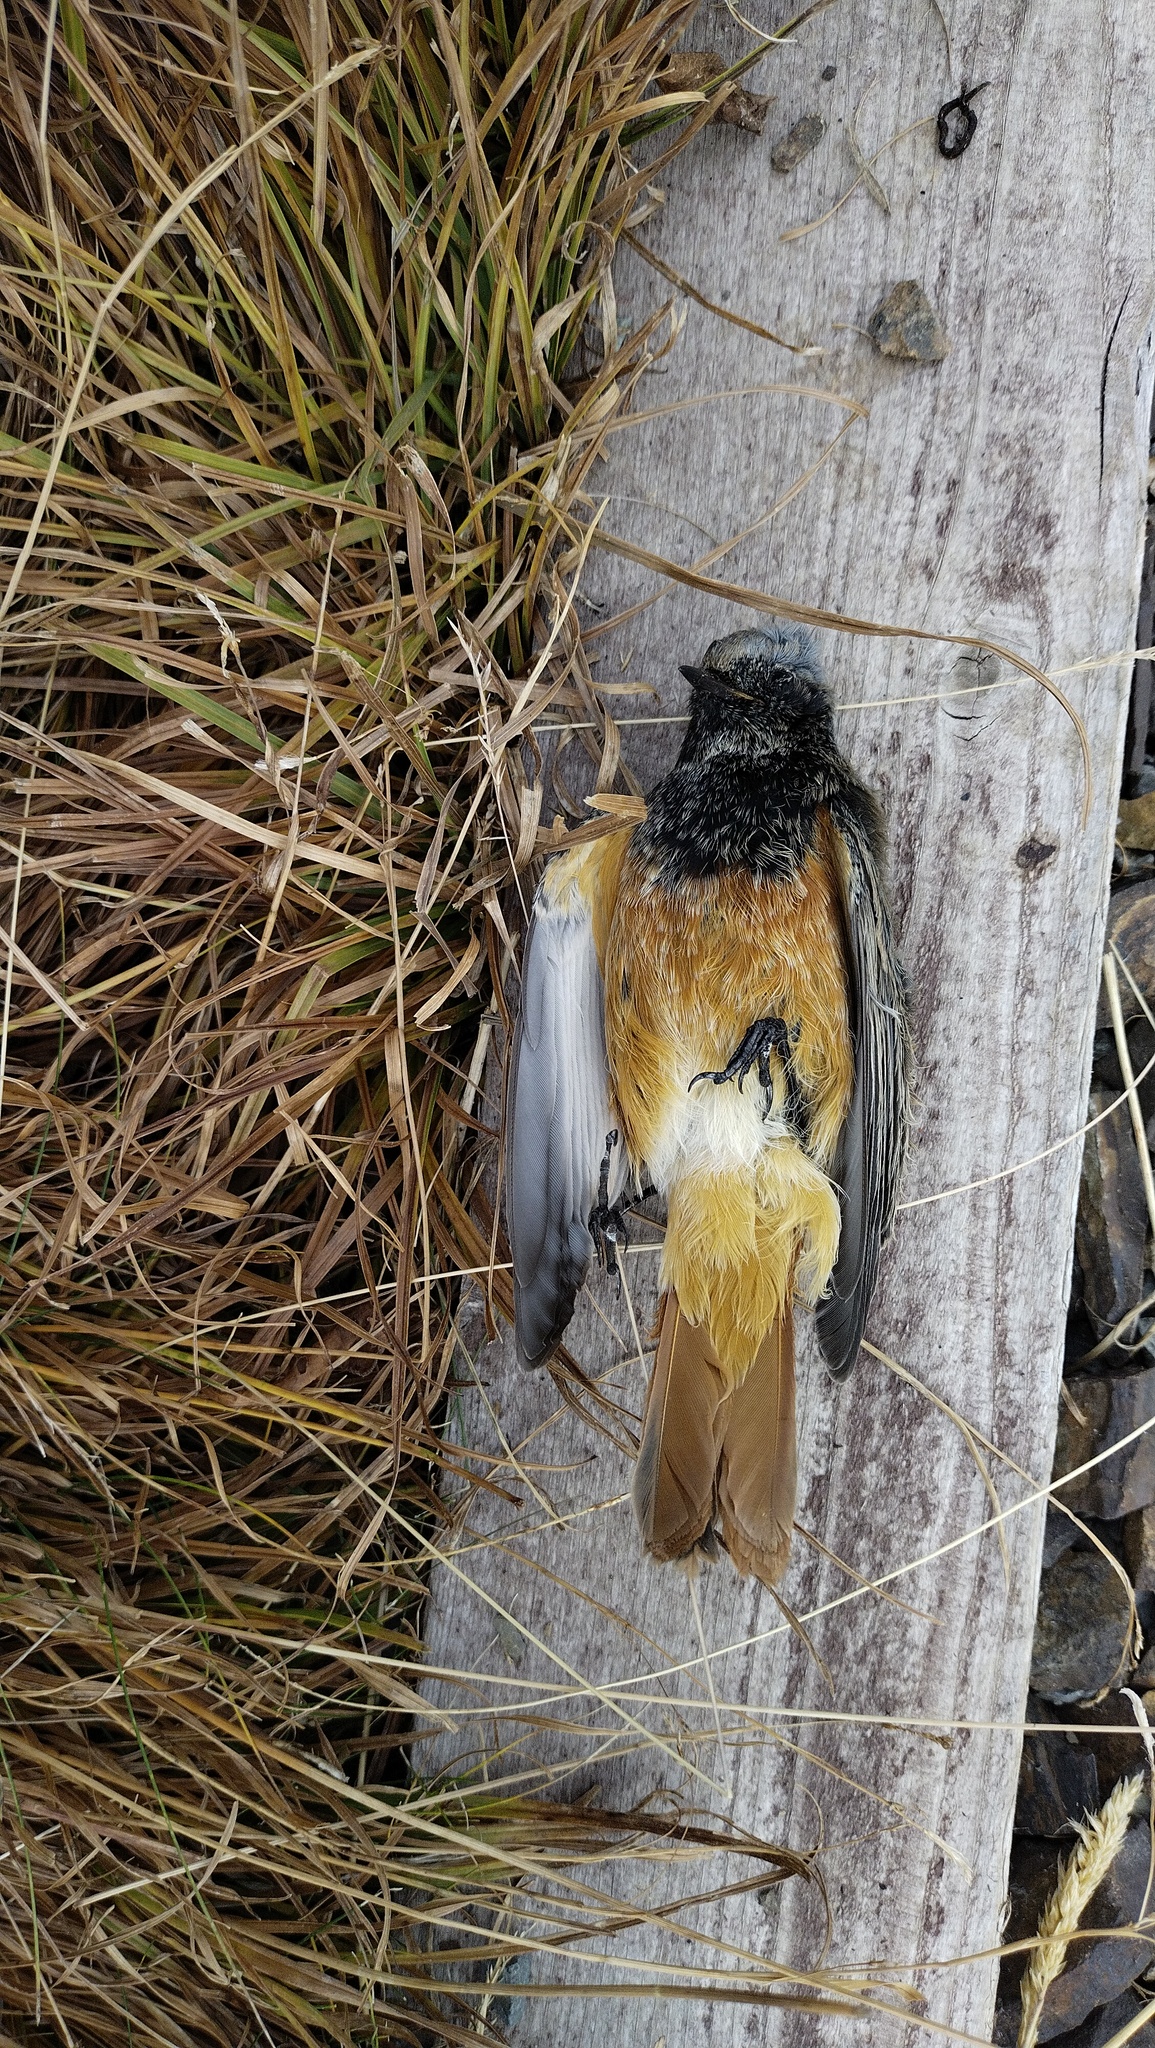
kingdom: Animalia
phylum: Chordata
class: Aves
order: Passeriformes
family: Muscicapidae
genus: Phoenicurus
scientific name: Phoenicurus ochruros
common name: Black redstart
